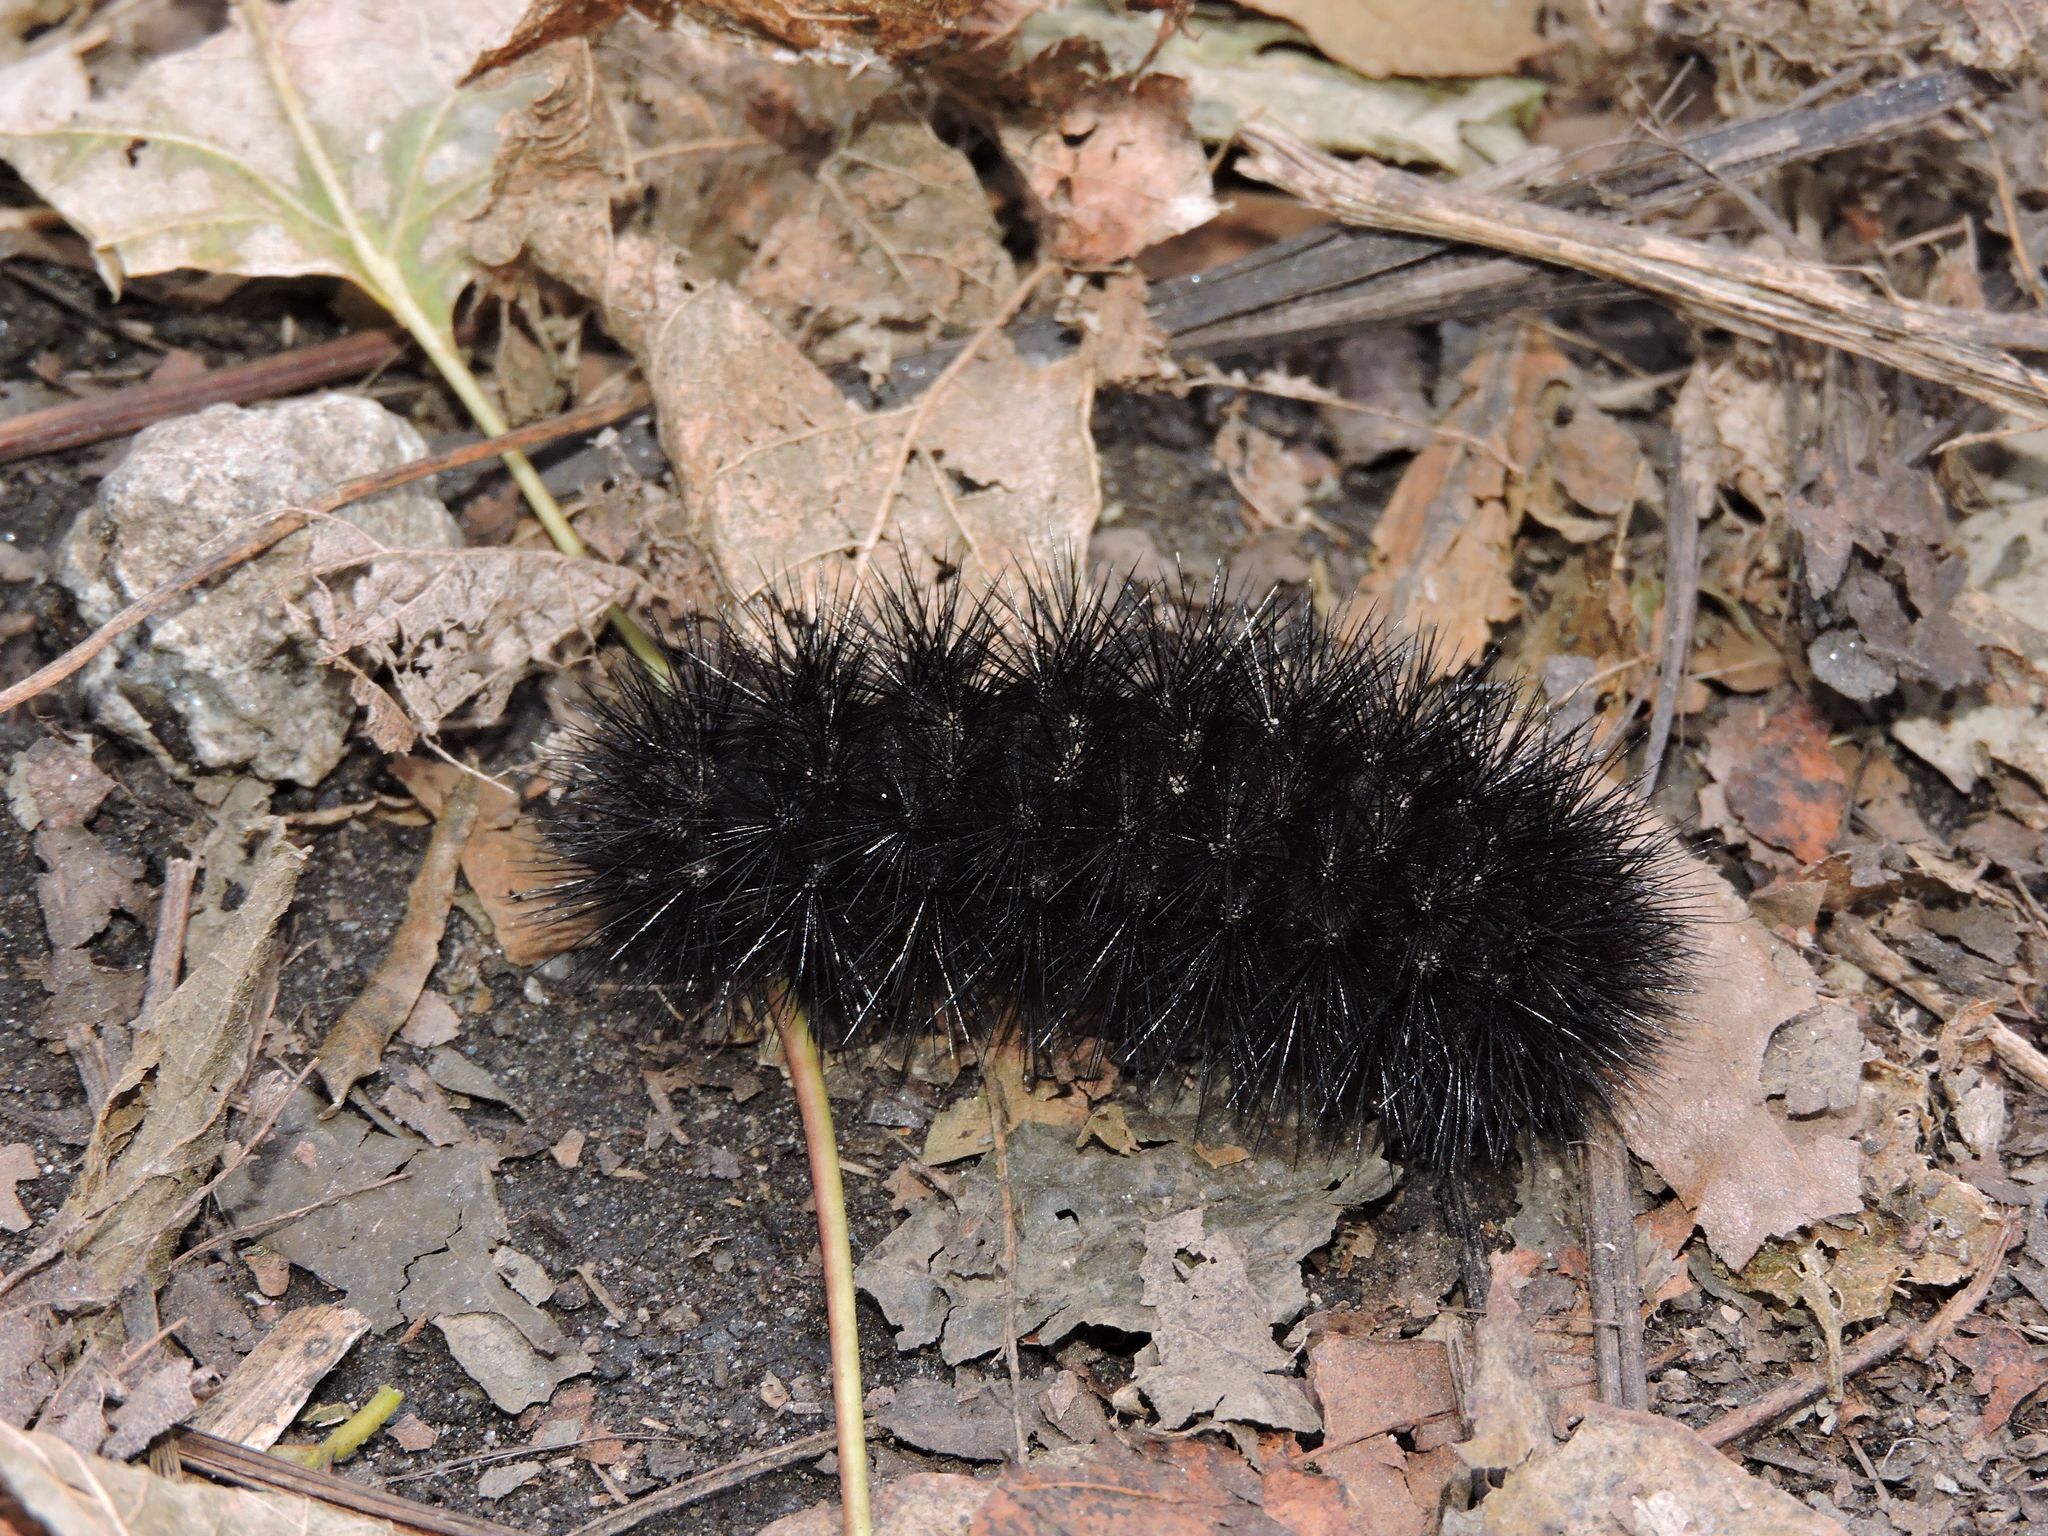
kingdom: Animalia
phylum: Arthropoda
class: Insecta
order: Lepidoptera
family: Erebidae
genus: Hypercompe
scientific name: Hypercompe scribonia
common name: Giant leopard moth
